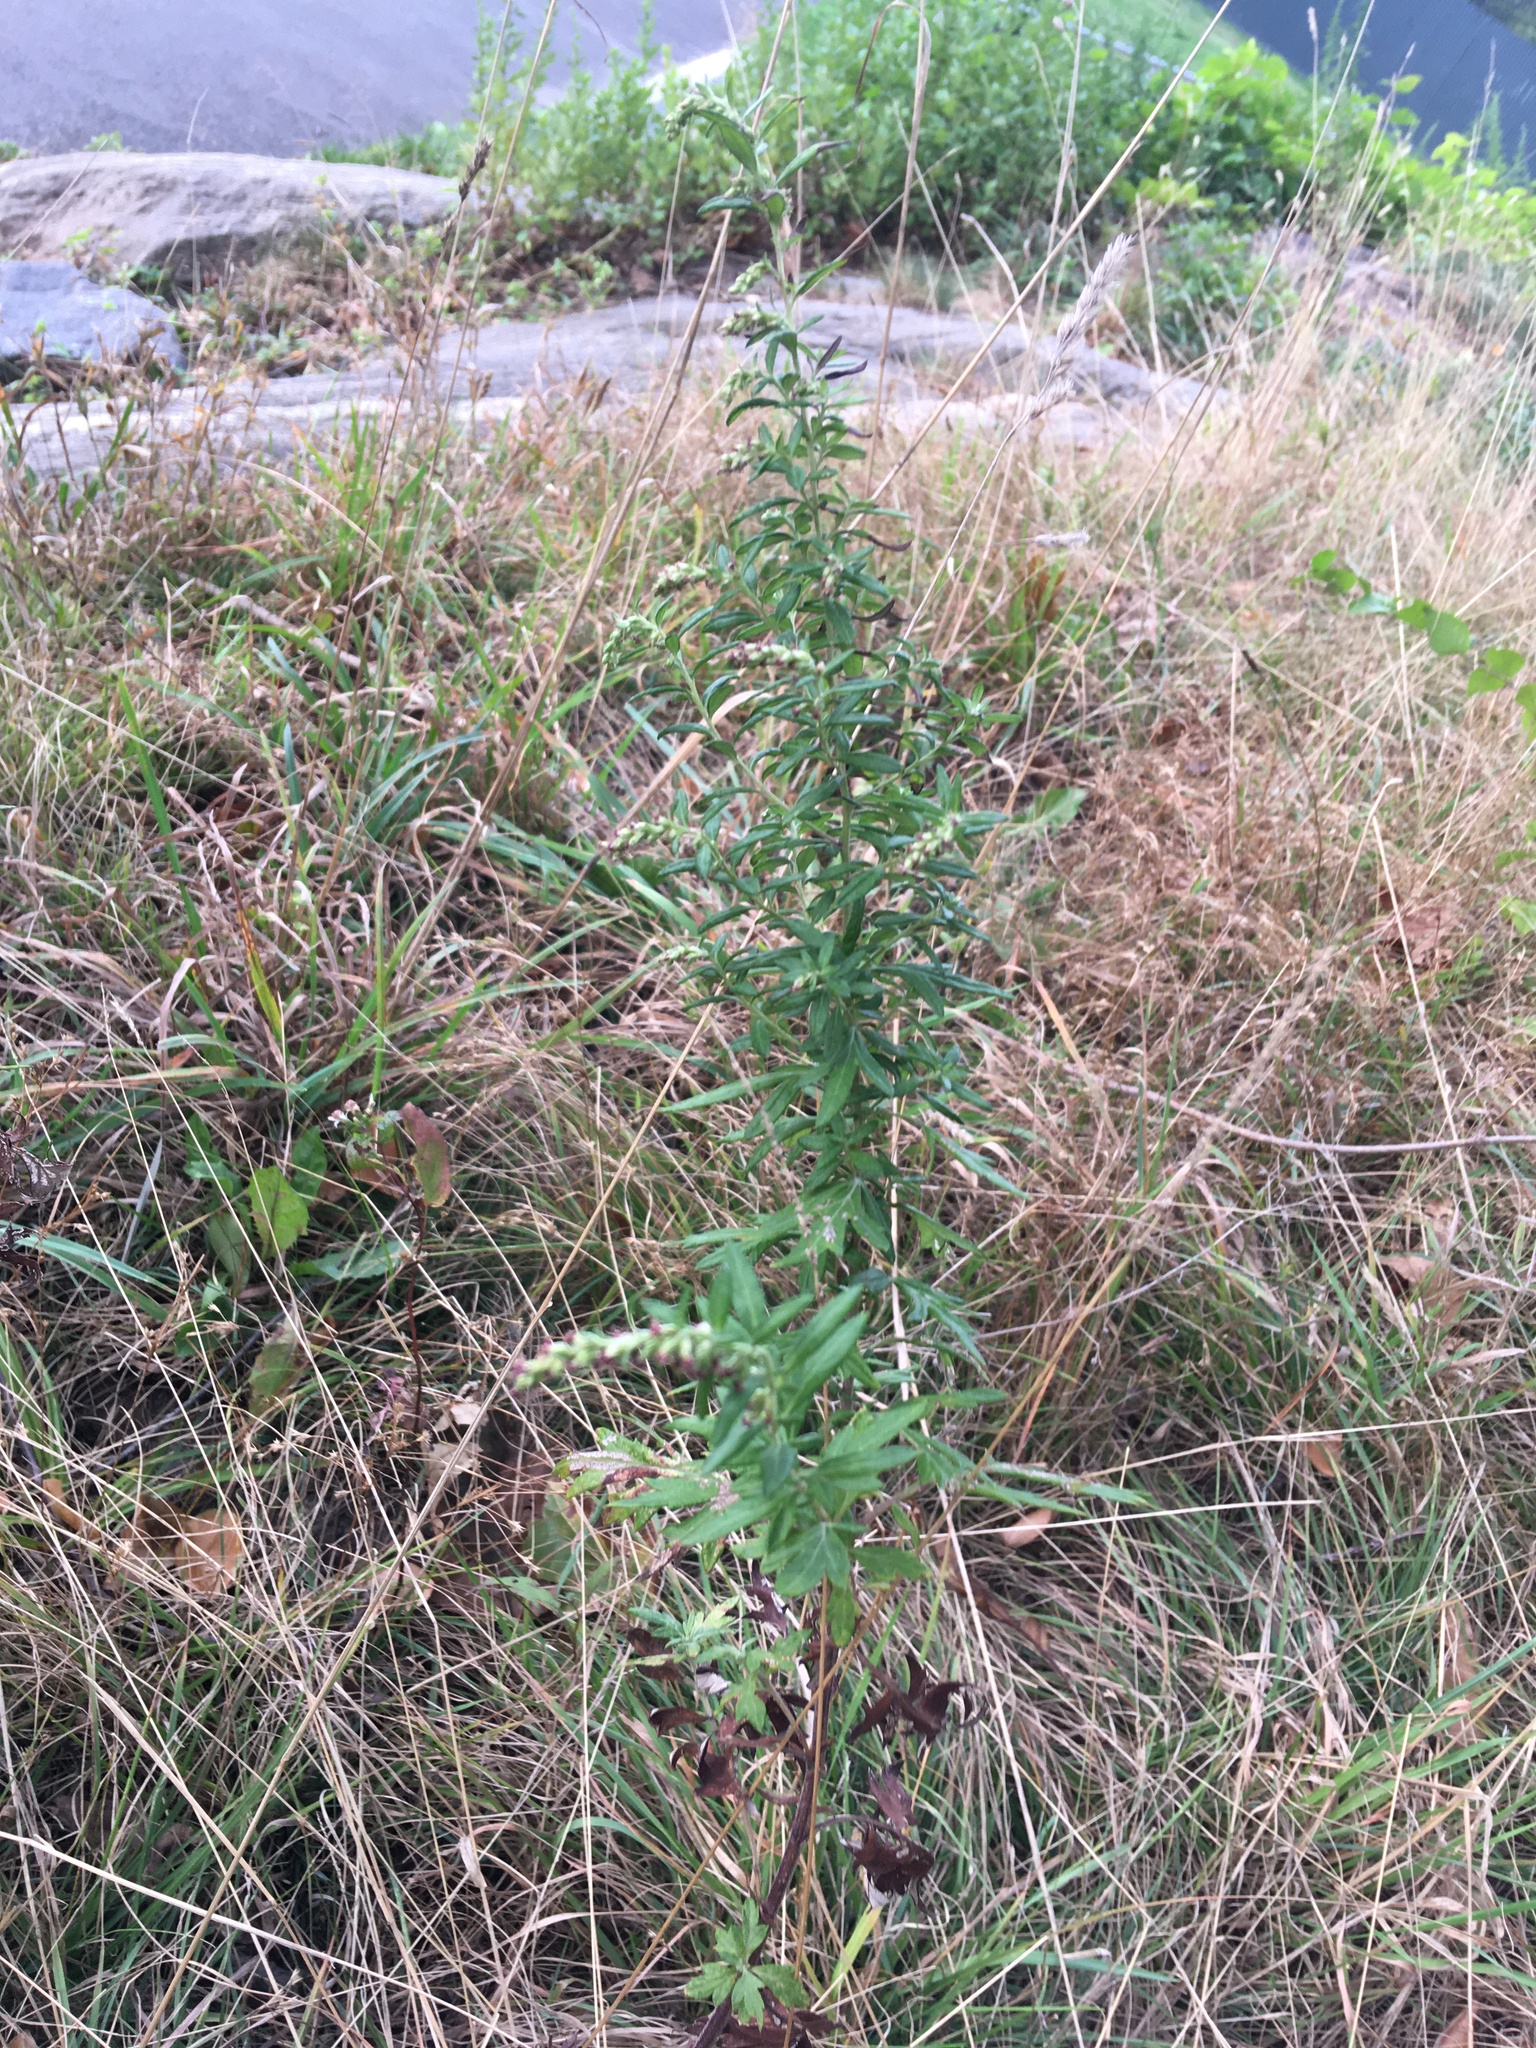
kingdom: Plantae
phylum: Tracheophyta
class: Magnoliopsida
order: Asterales
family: Asteraceae
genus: Artemisia
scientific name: Artemisia vulgaris
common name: Mugwort
